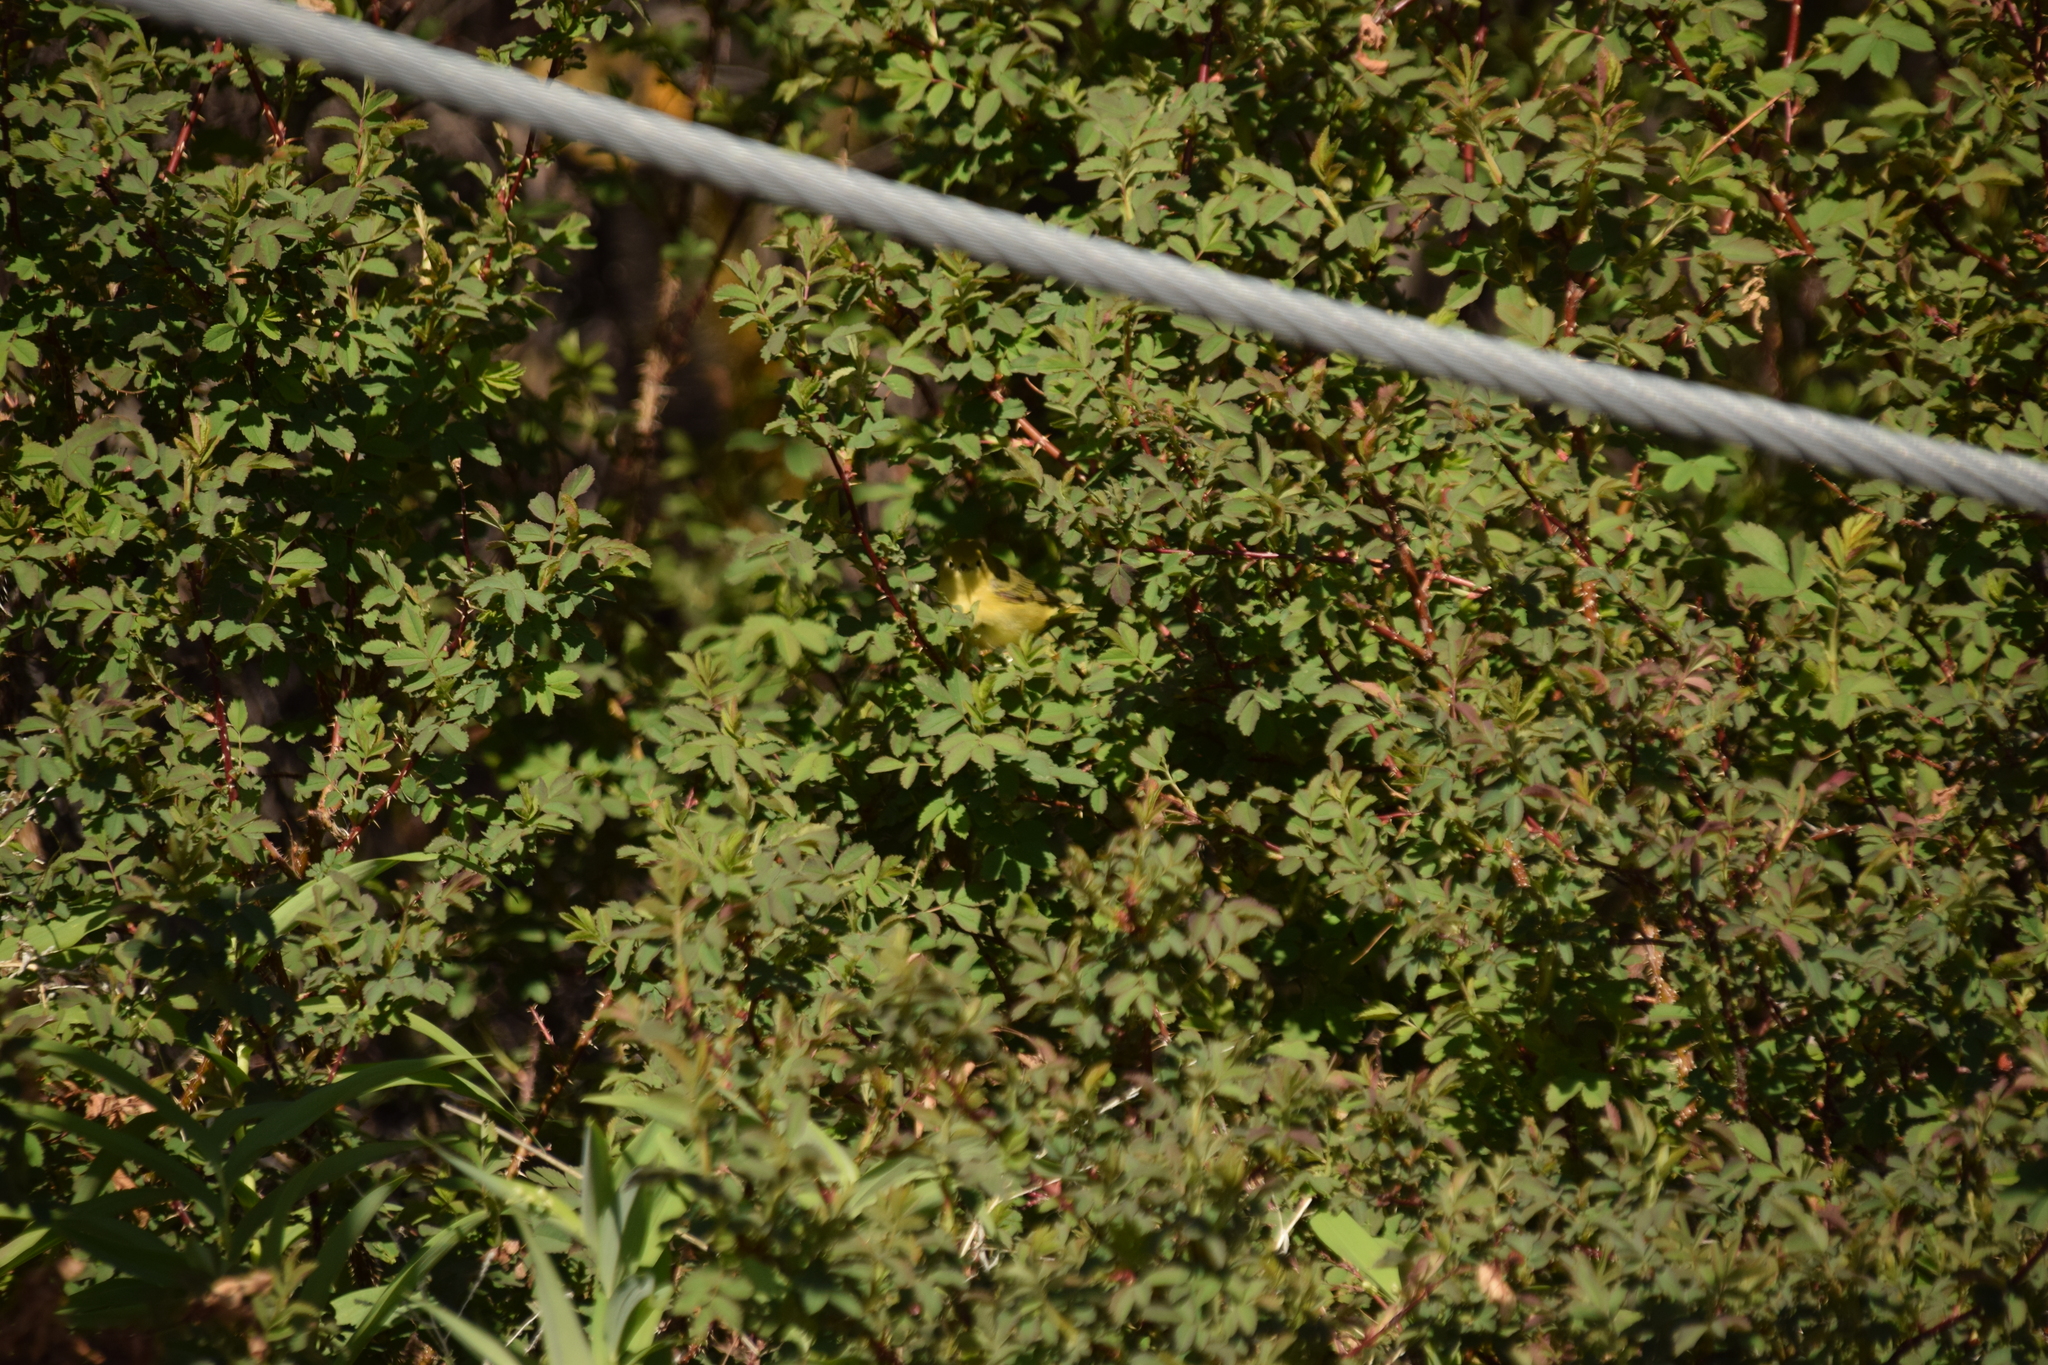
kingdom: Animalia
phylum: Chordata
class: Aves
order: Passeriformes
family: Parulidae
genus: Setophaga
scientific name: Setophaga petechia
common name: Yellow warbler
